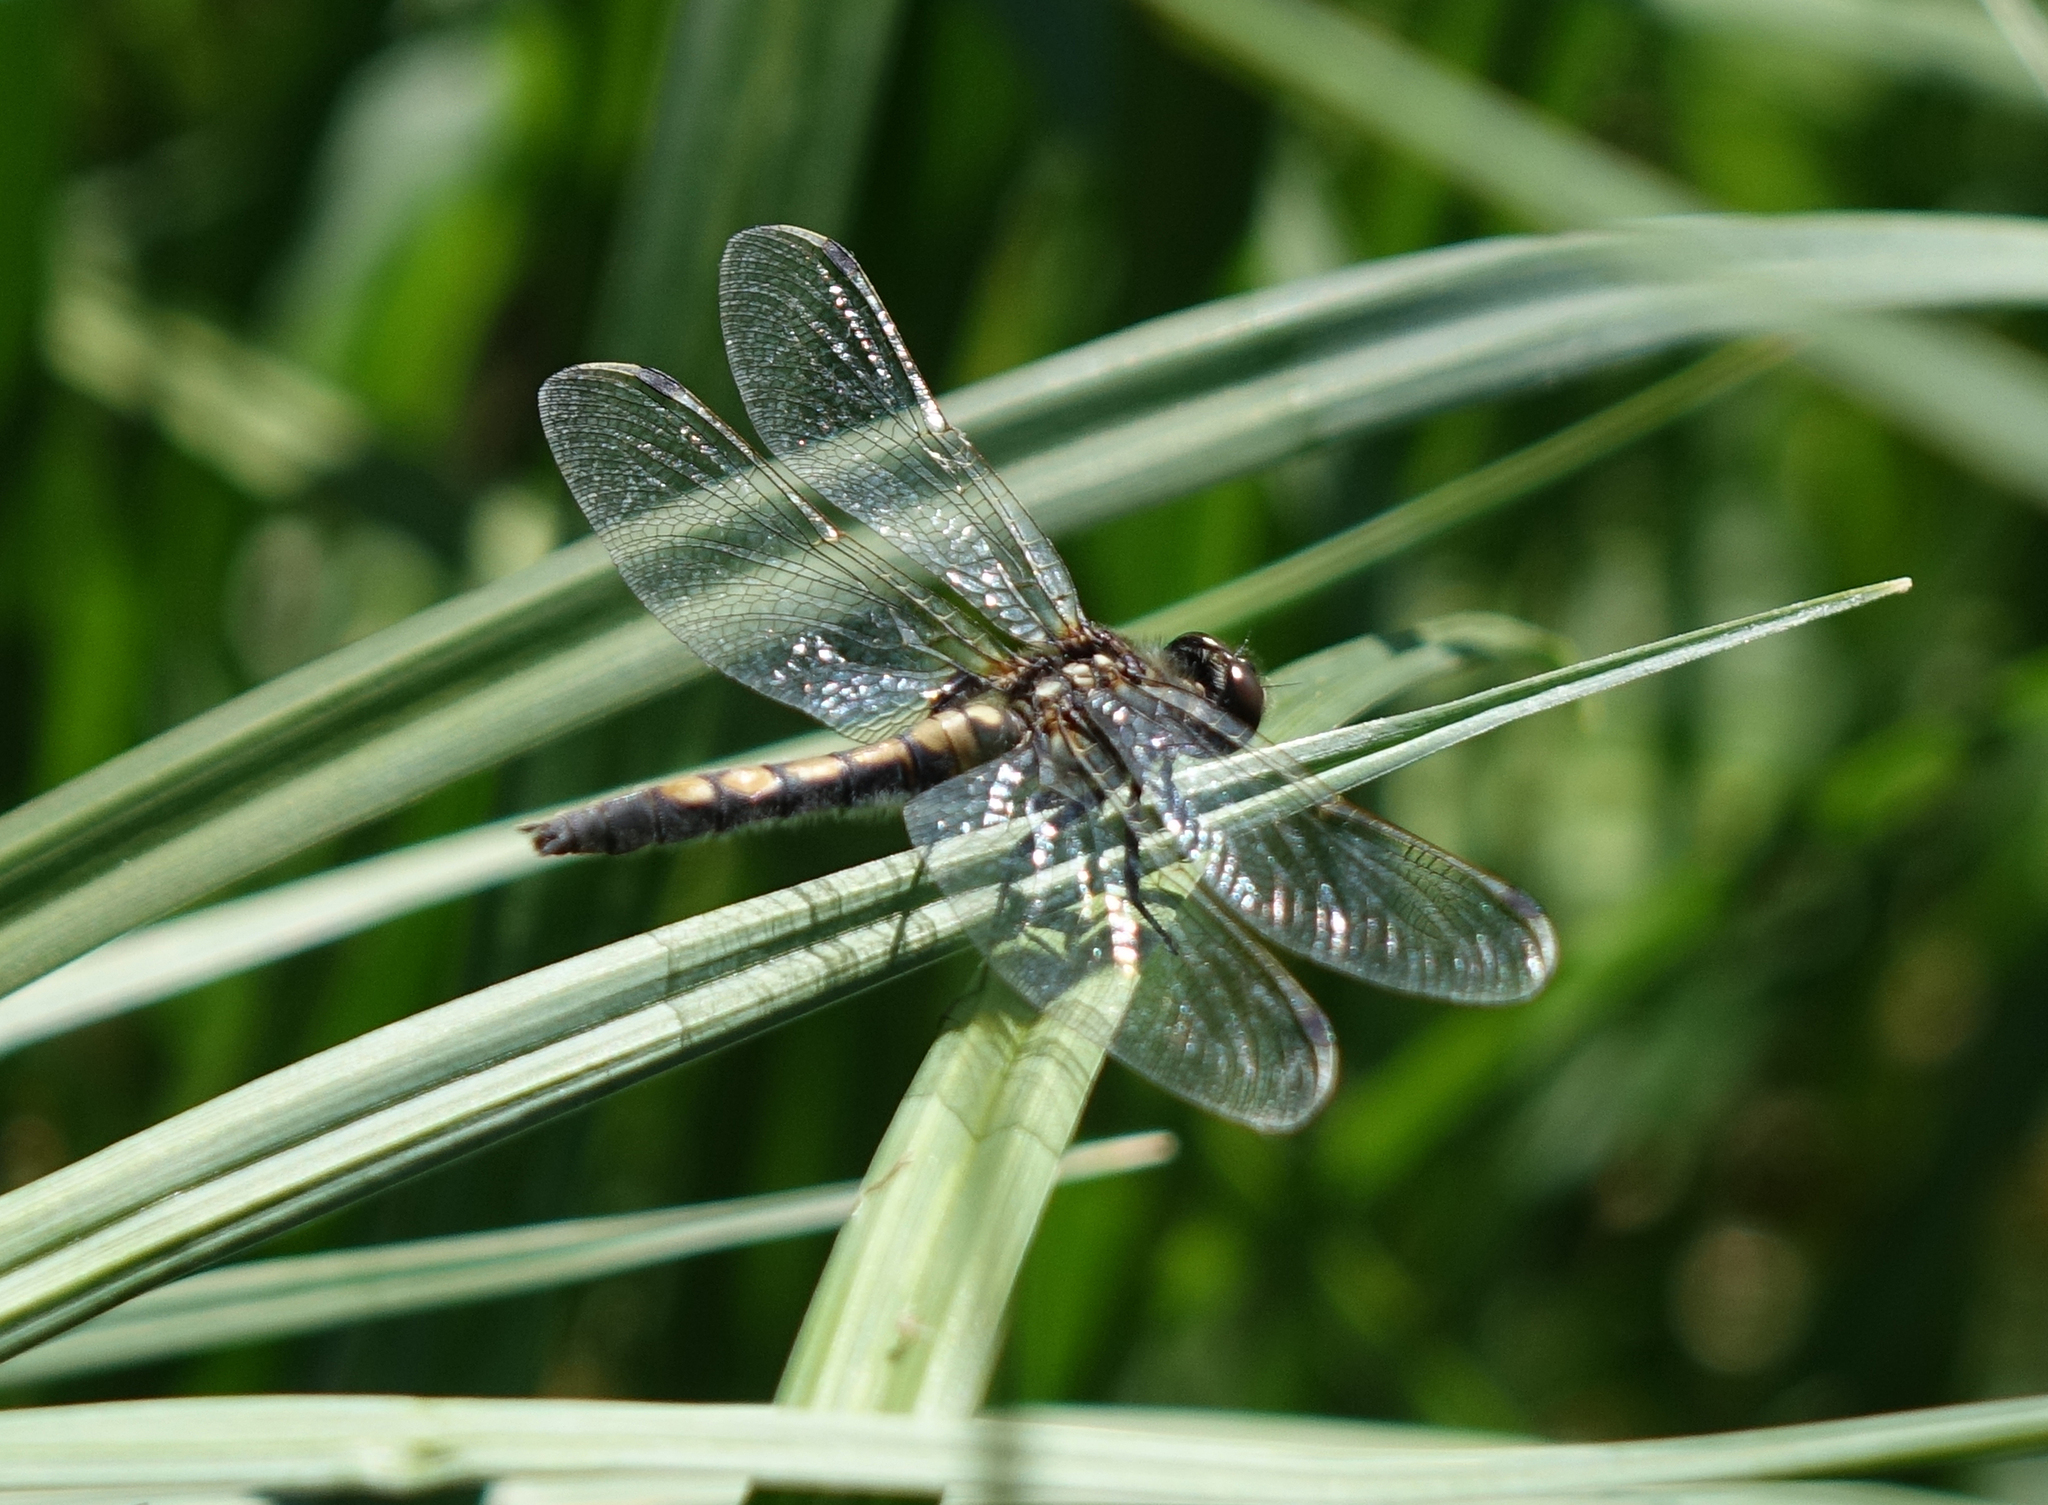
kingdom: Animalia
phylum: Arthropoda
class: Insecta
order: Odonata
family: Libellulidae
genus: Leucorrhinia
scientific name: Leucorrhinia rubicunda
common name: Ruby whiteface
